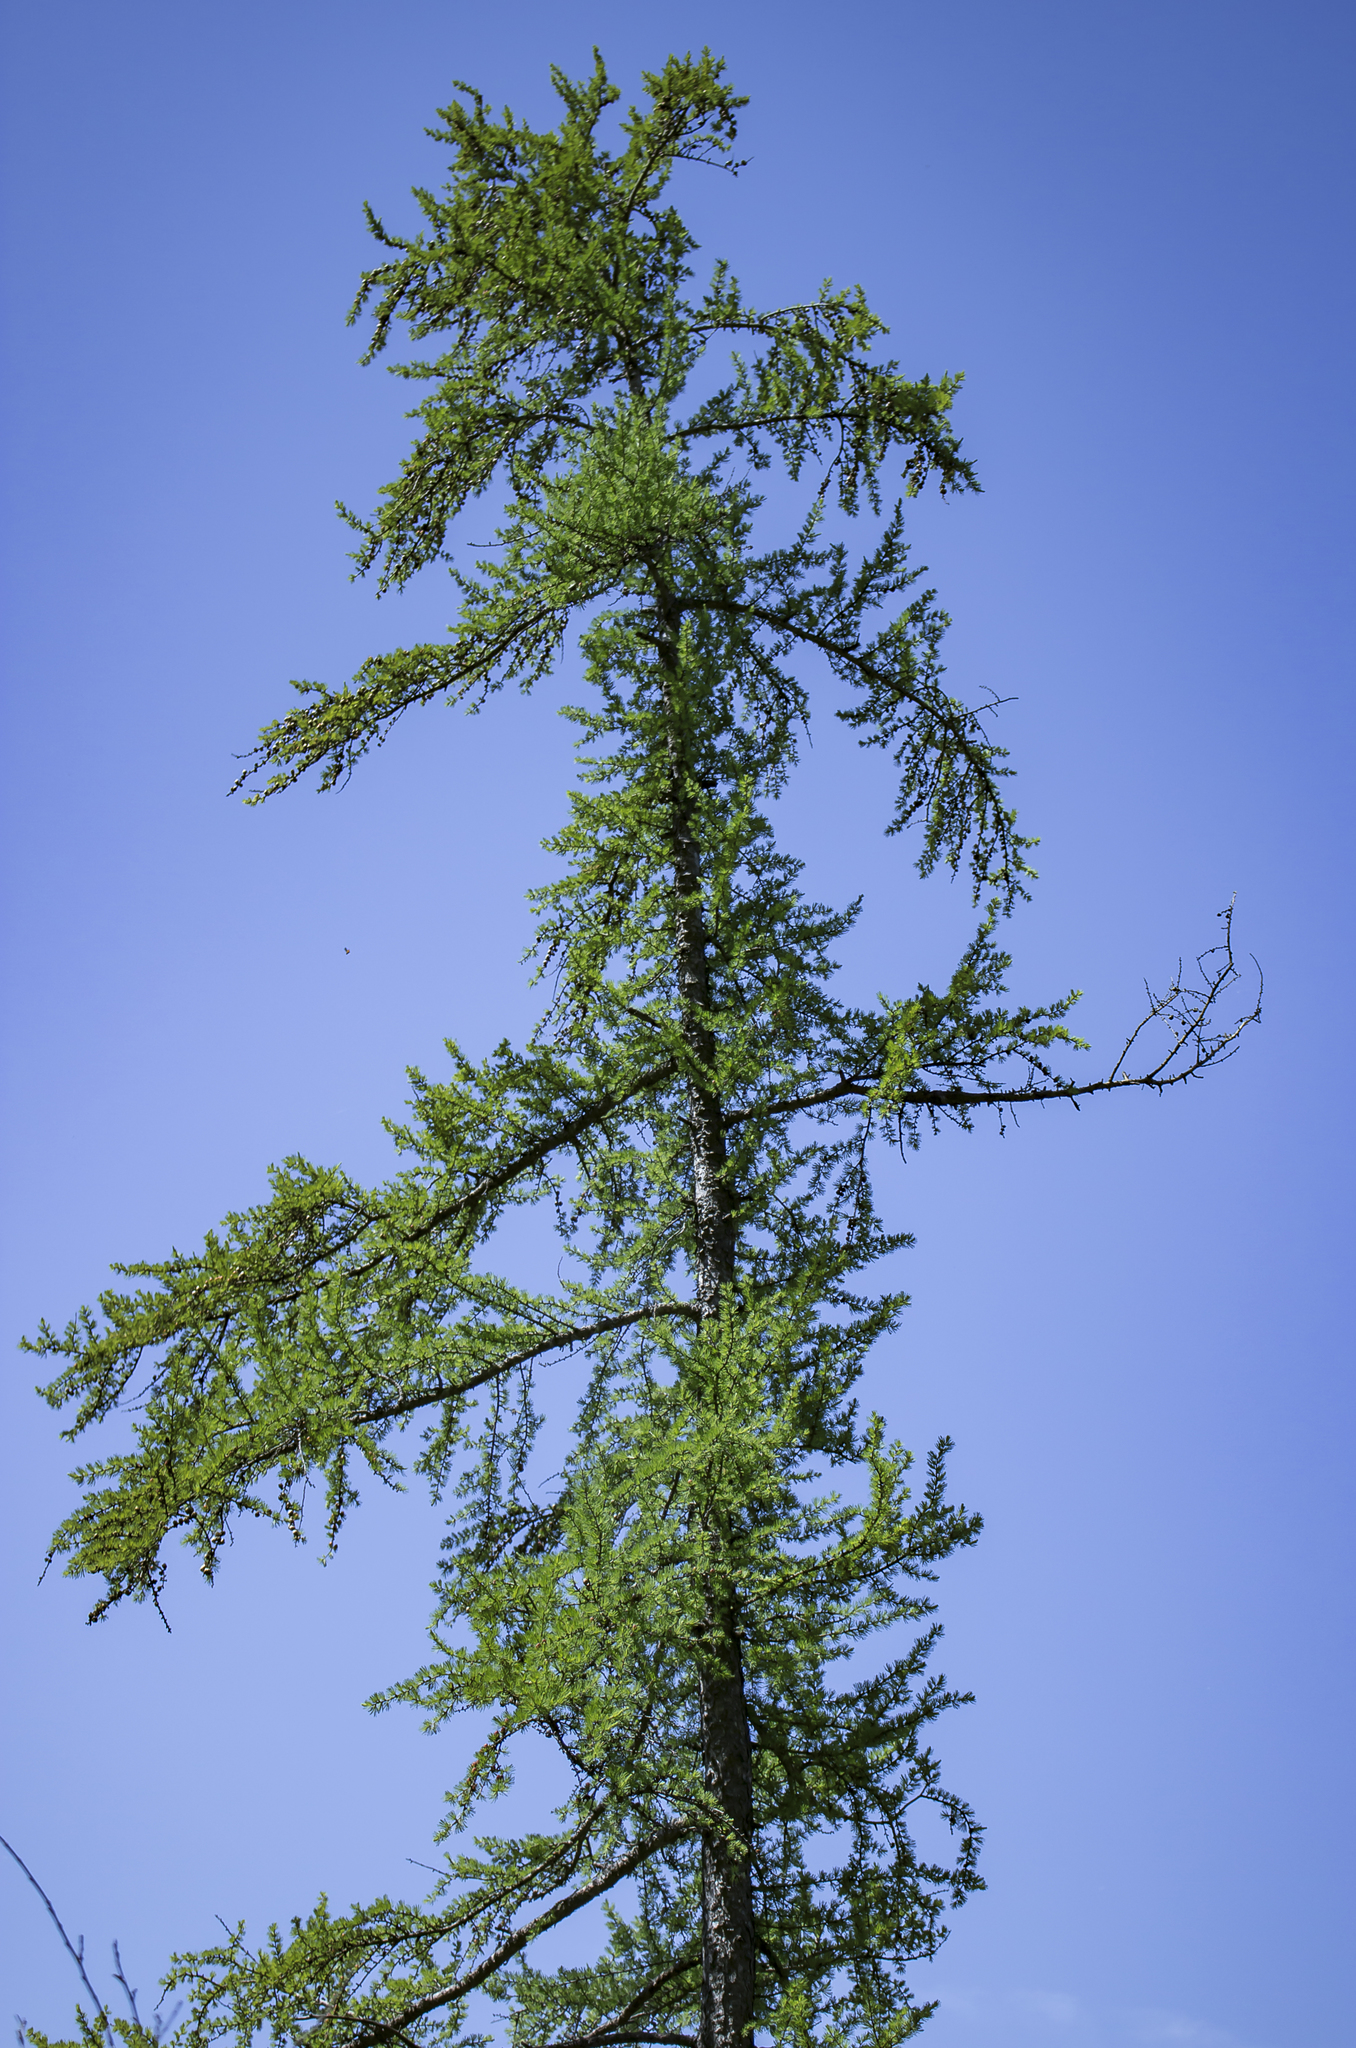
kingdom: Plantae
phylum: Tracheophyta
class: Pinopsida
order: Pinales
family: Pinaceae
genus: Larix
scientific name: Larix laricina
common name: American larch
